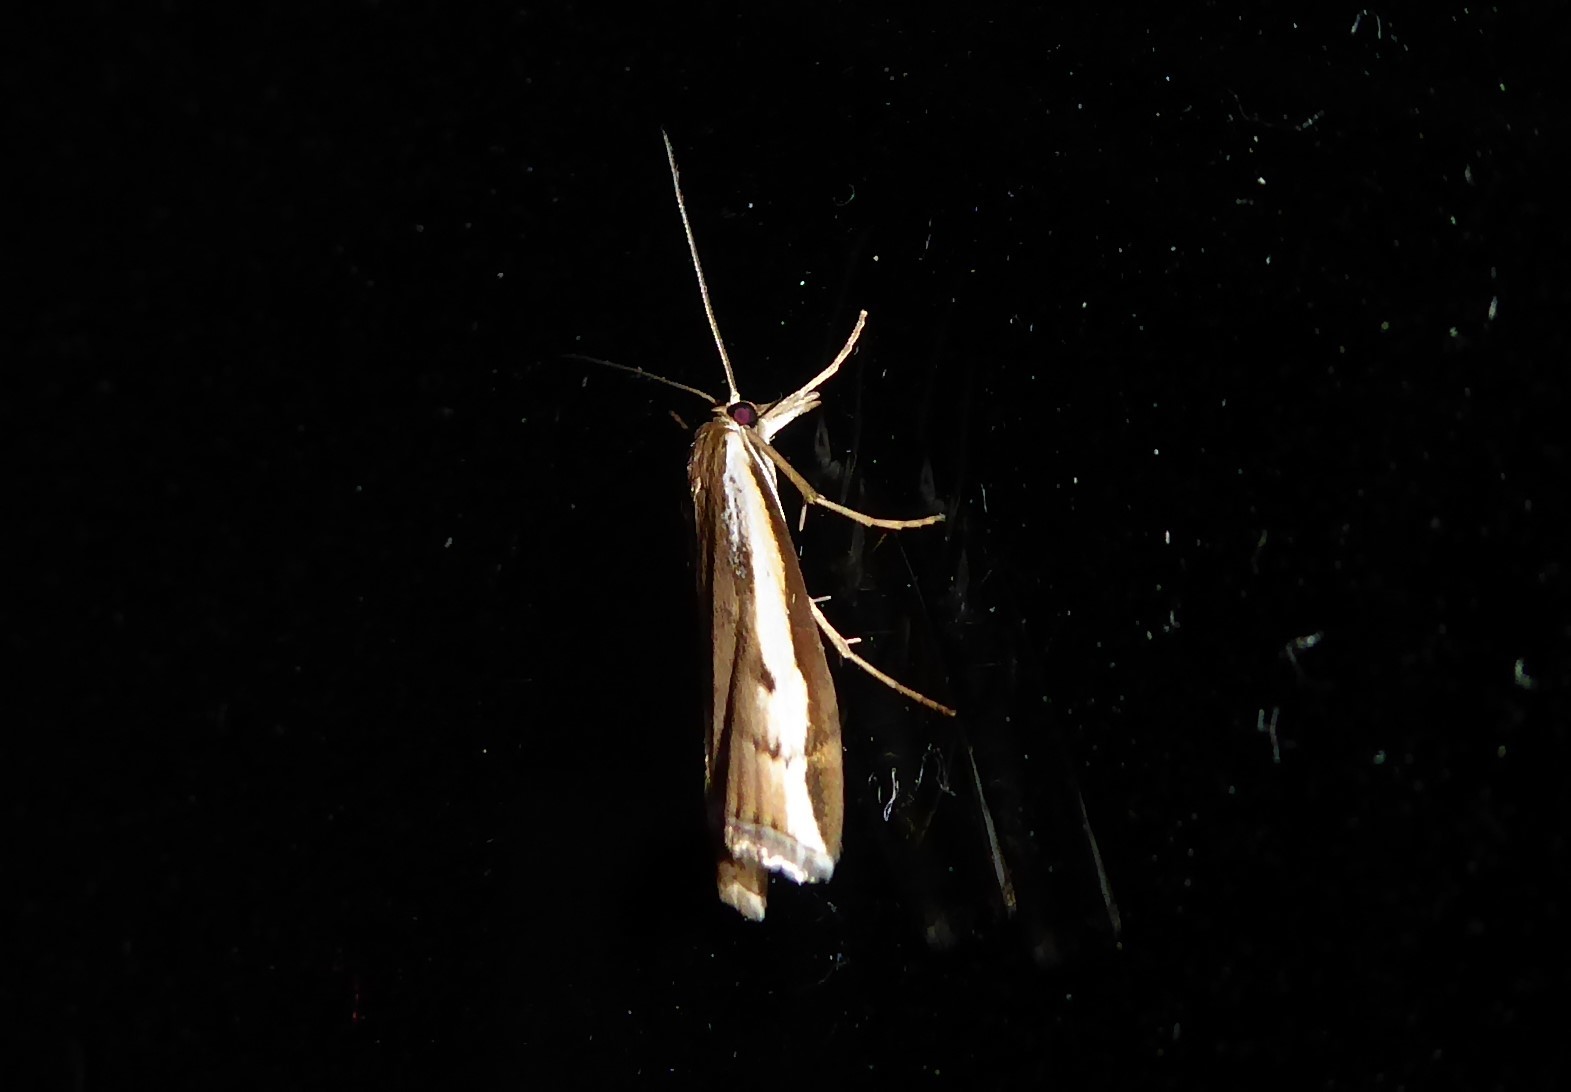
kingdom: Animalia
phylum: Arthropoda
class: Insecta
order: Lepidoptera
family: Crambidae
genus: Orocrambus
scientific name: Orocrambus flexuosellus
